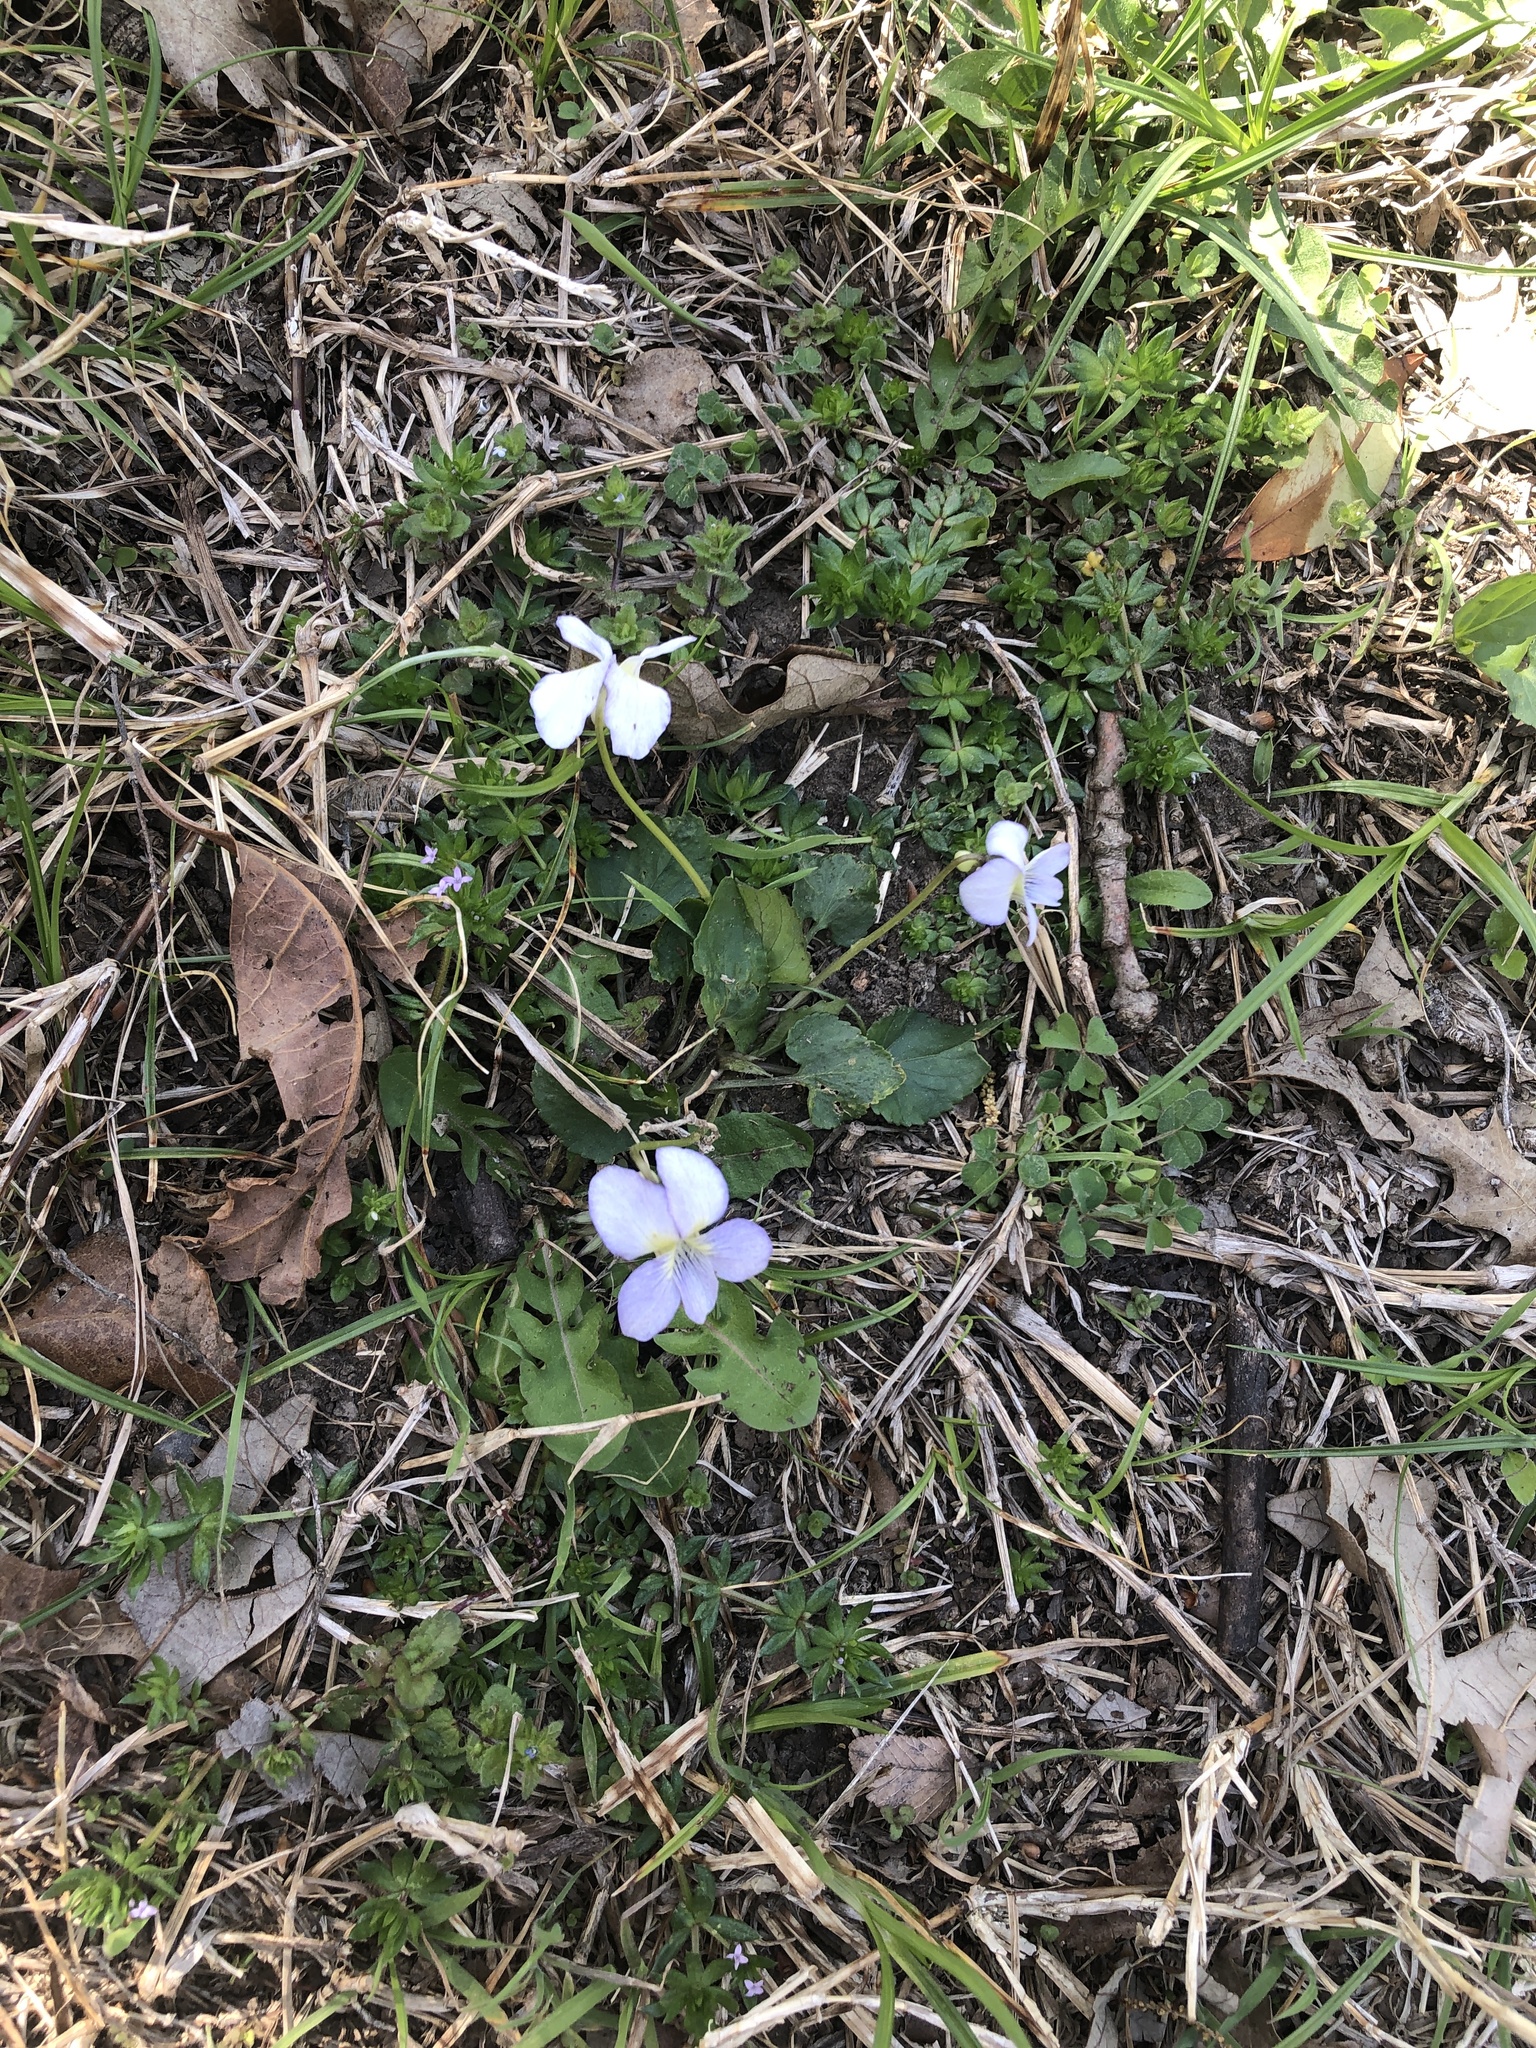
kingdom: Plantae
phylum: Tracheophyta
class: Magnoliopsida
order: Malpighiales
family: Violaceae
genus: Viola
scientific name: Viola missouriensis
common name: Missouri violet
